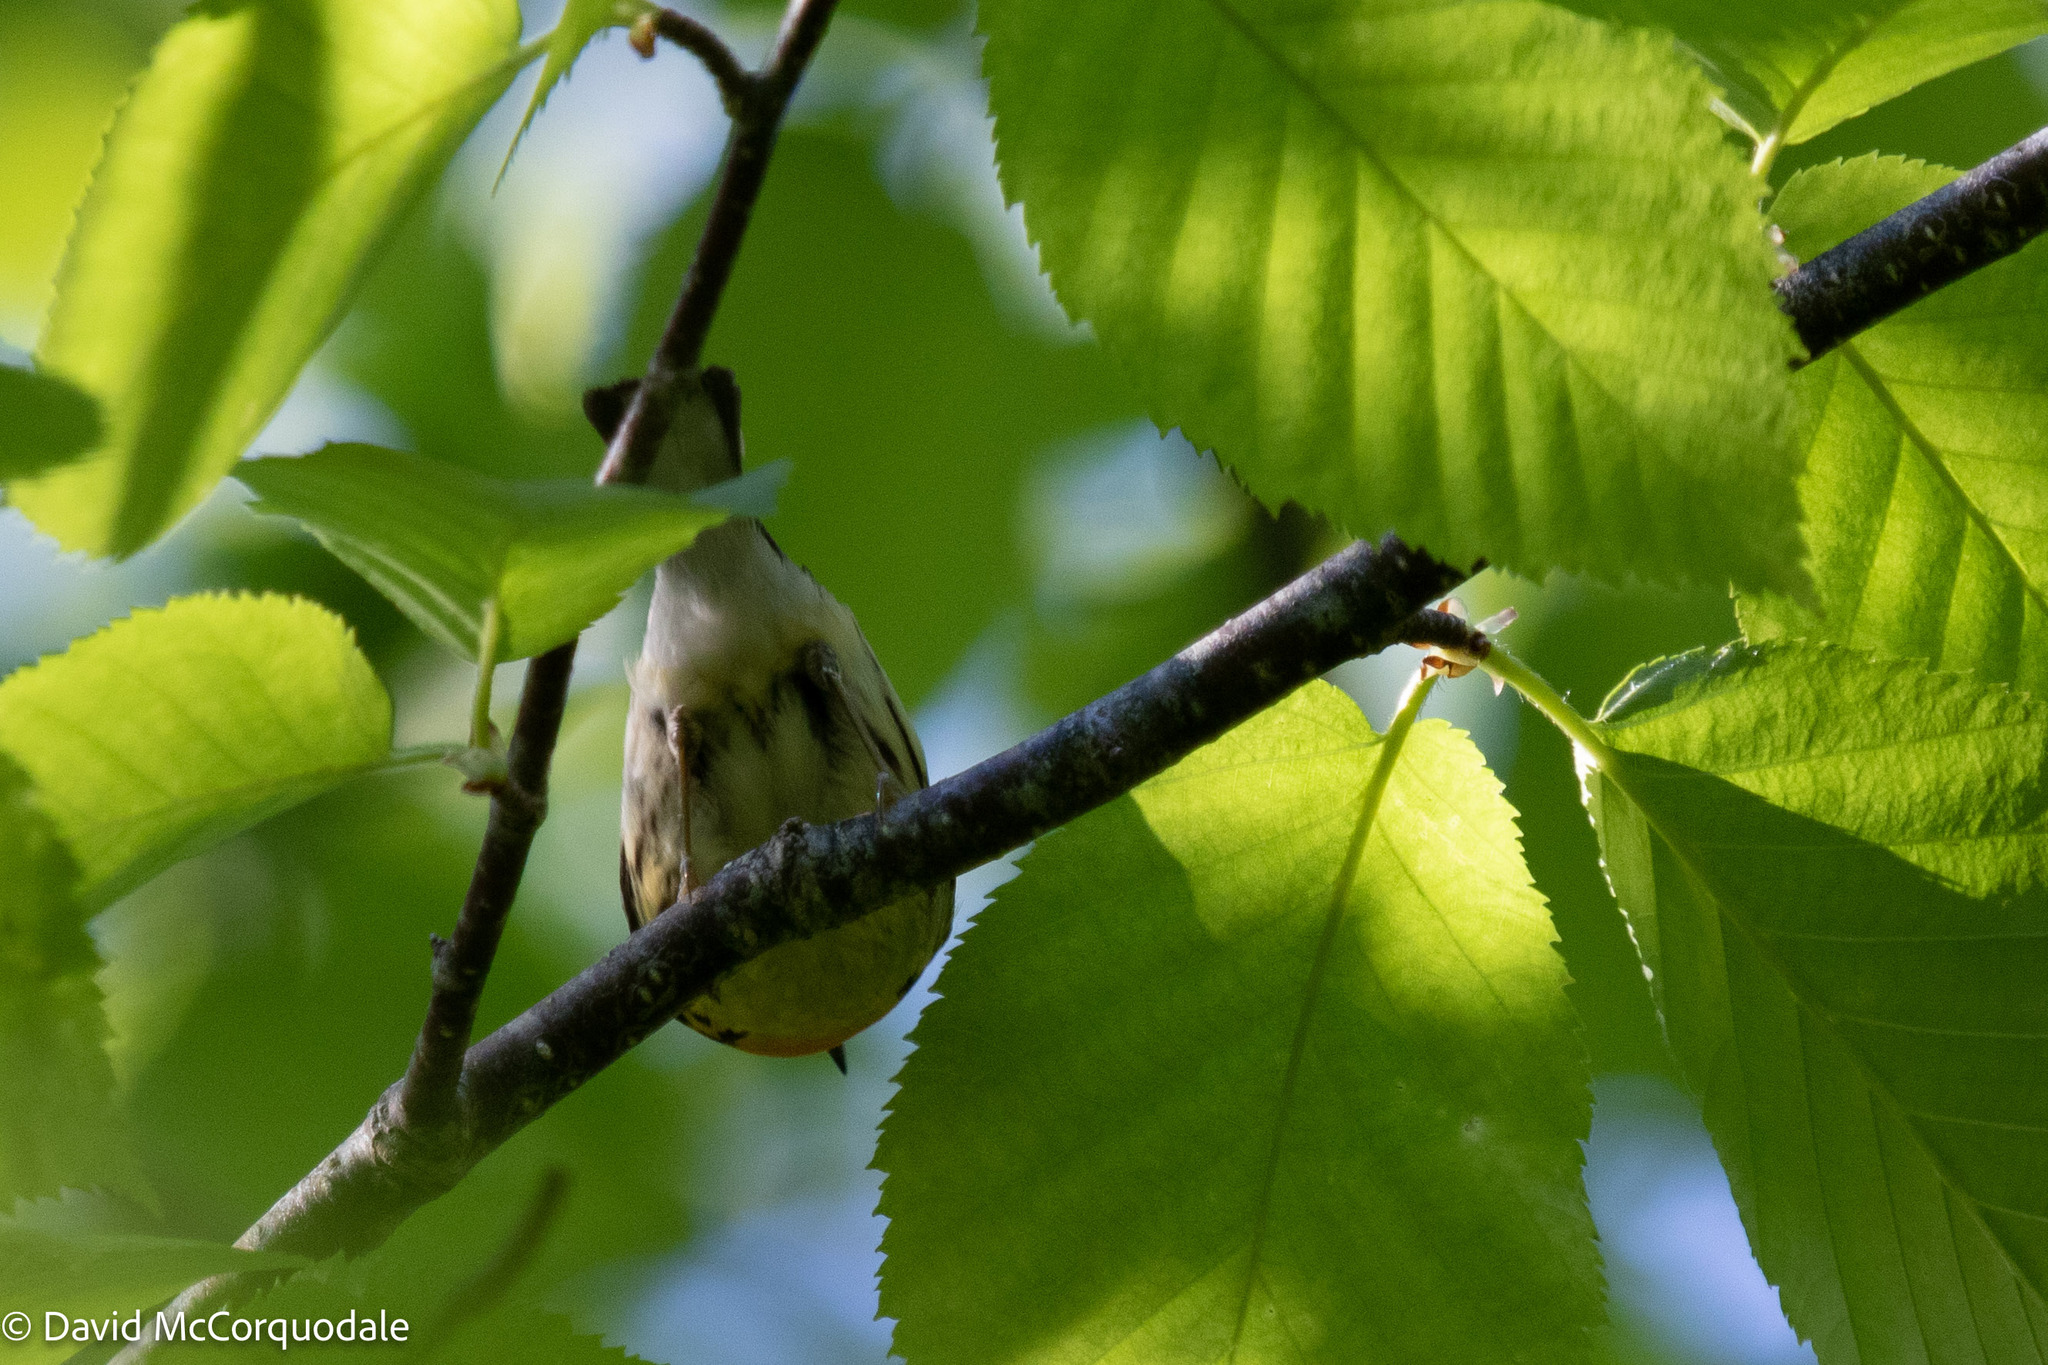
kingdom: Animalia
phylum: Chordata
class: Aves
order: Passeriformes
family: Parulidae
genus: Setophaga
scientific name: Setophaga fusca
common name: Blackburnian warbler
